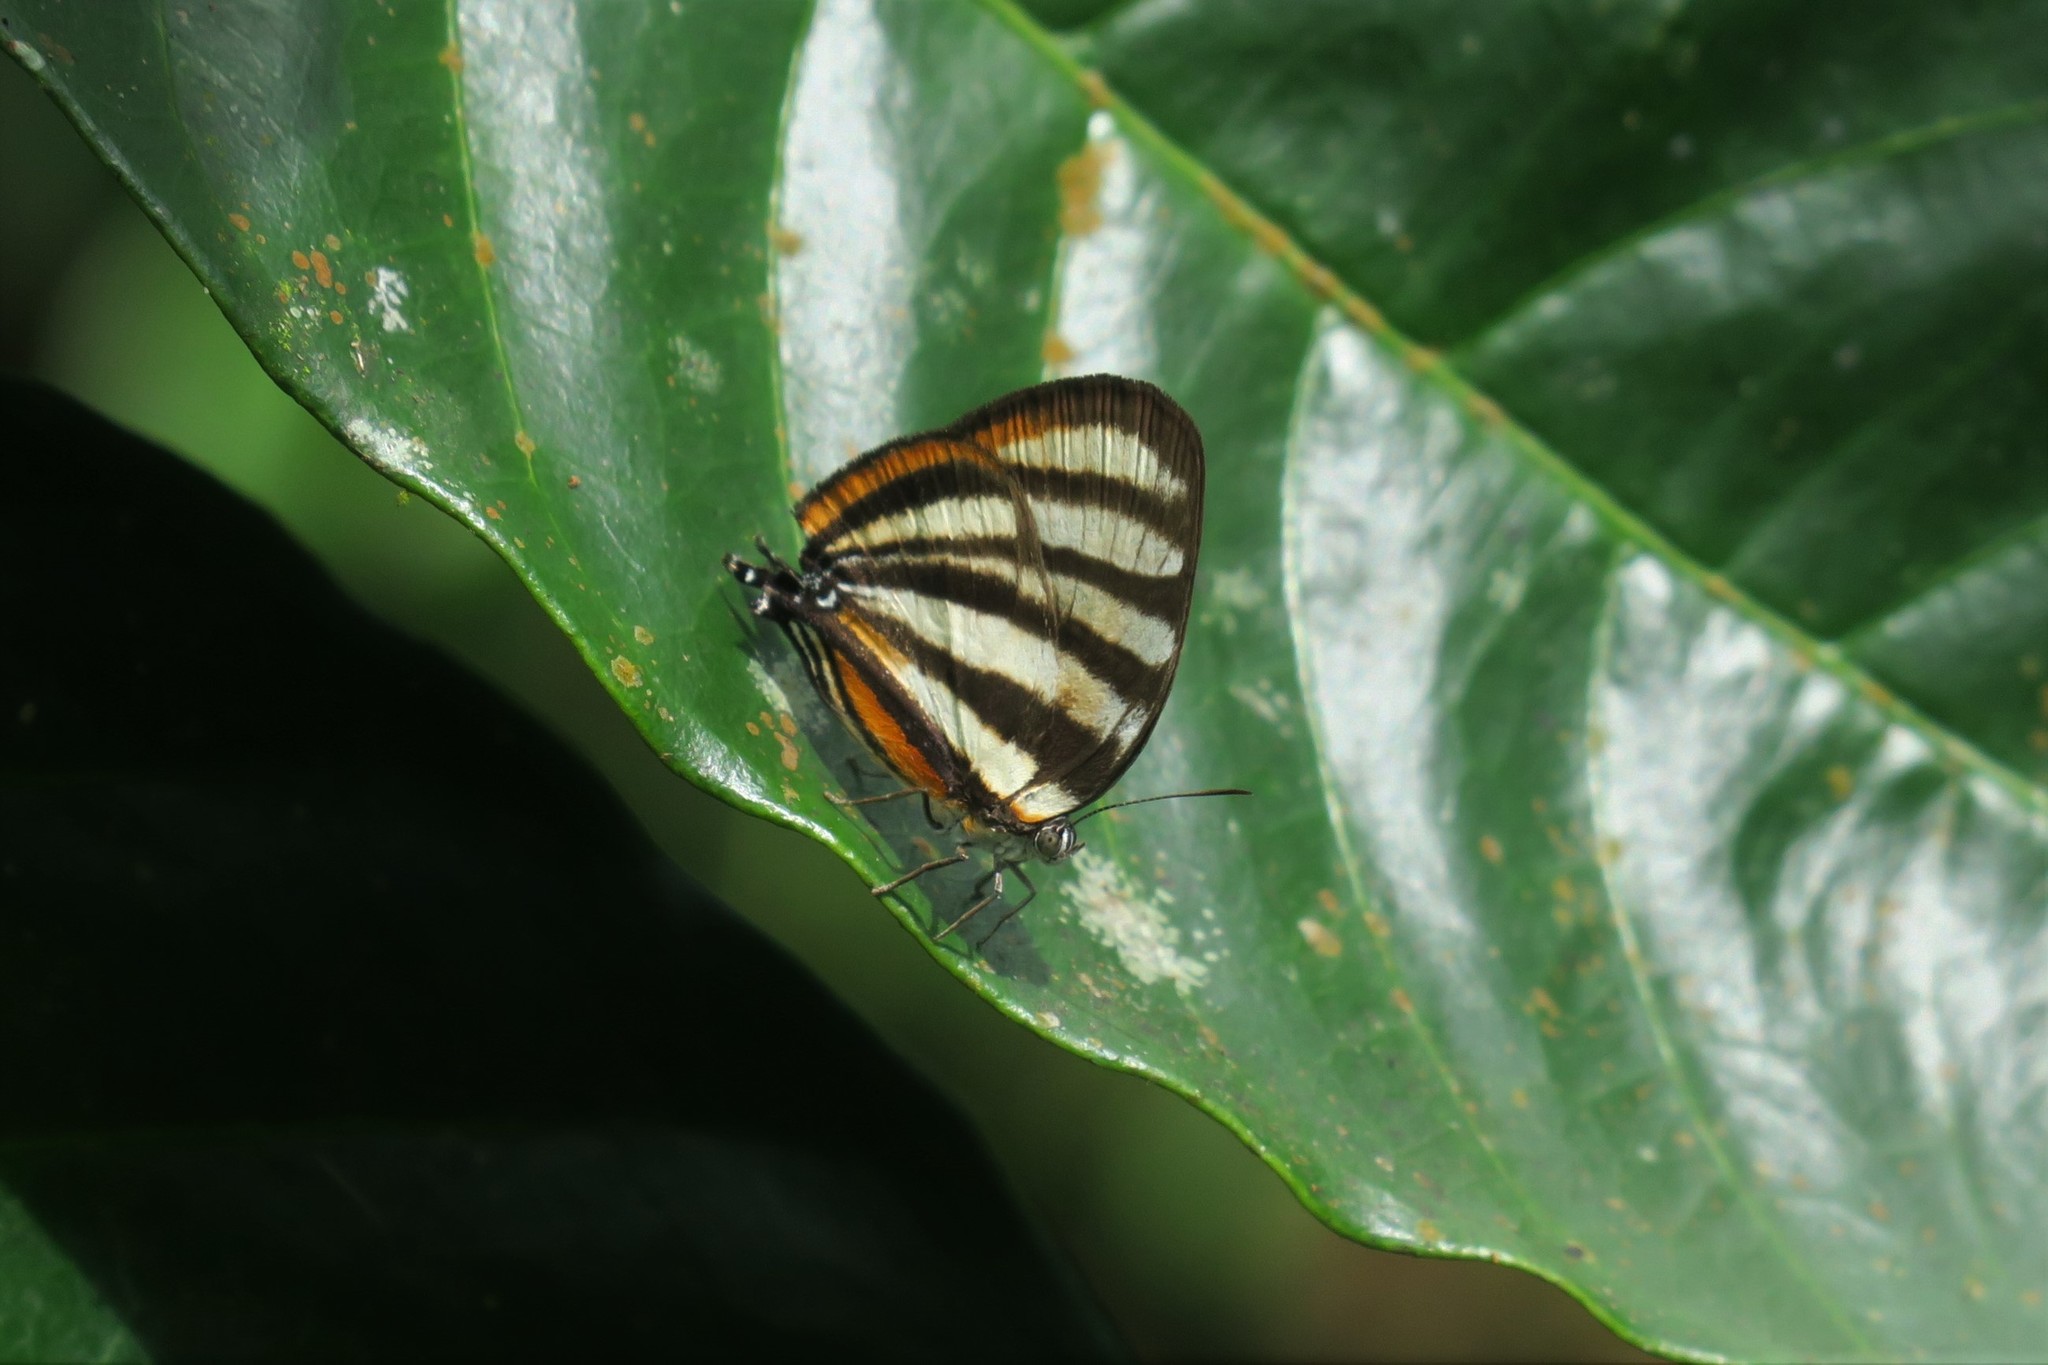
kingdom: Animalia
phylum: Arthropoda
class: Insecta
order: Lepidoptera
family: Lycaenidae
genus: Arawacus
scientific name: Arawacus separata
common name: Separated stripestreak
